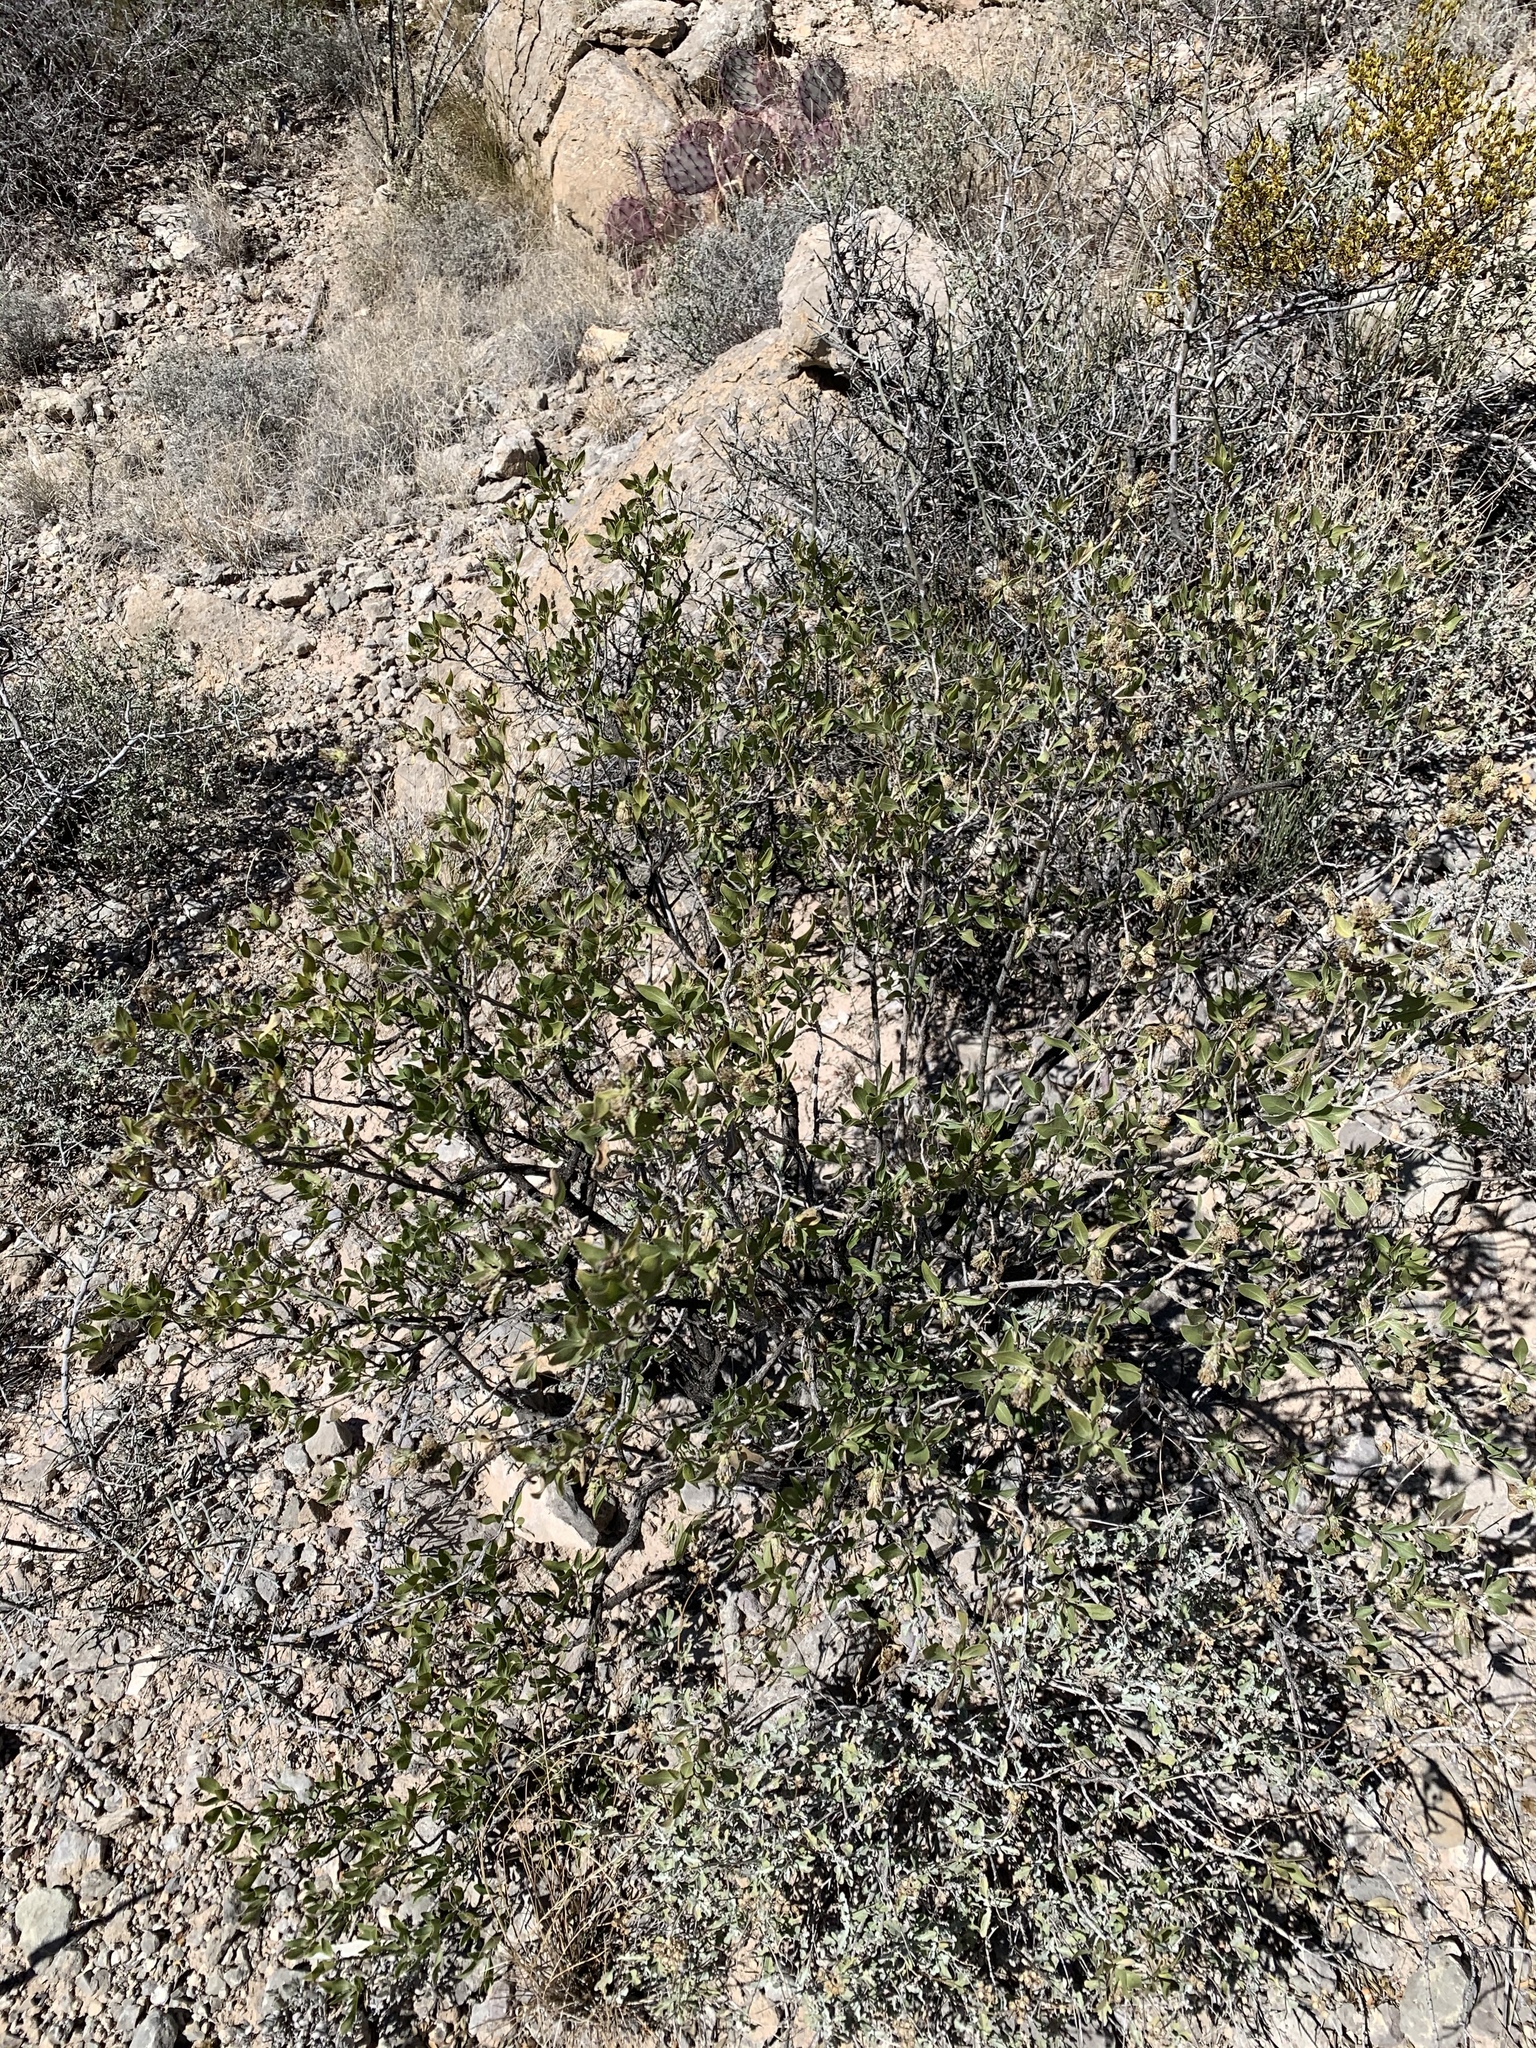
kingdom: Plantae
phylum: Tracheophyta
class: Magnoliopsida
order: Asterales
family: Asteraceae
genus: Flourensia
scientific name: Flourensia cernua
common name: Varnishbush
